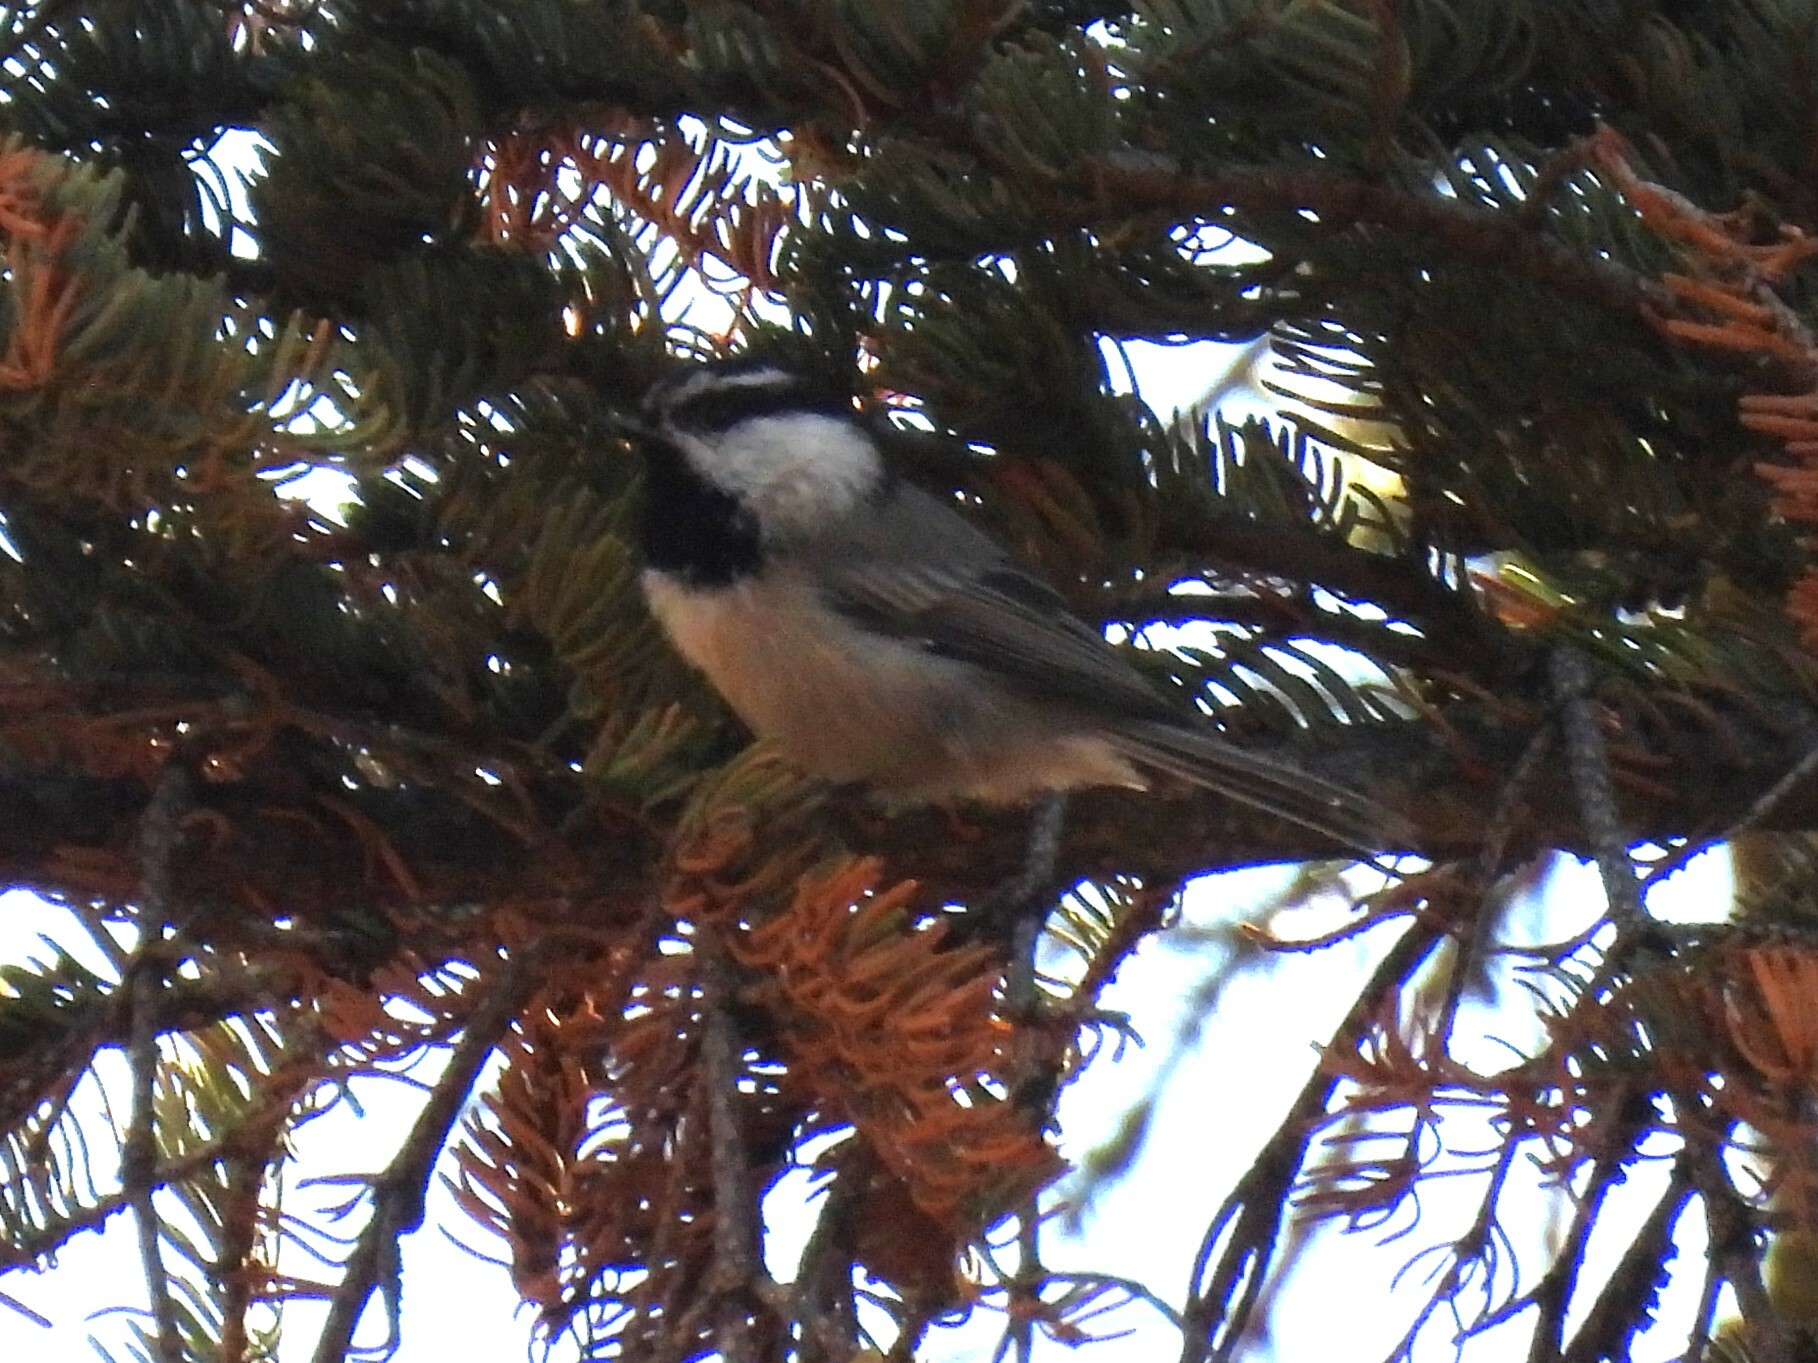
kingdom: Animalia
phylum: Chordata
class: Aves
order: Passeriformes
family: Paridae
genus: Poecile
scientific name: Poecile gambeli
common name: Mountain chickadee
